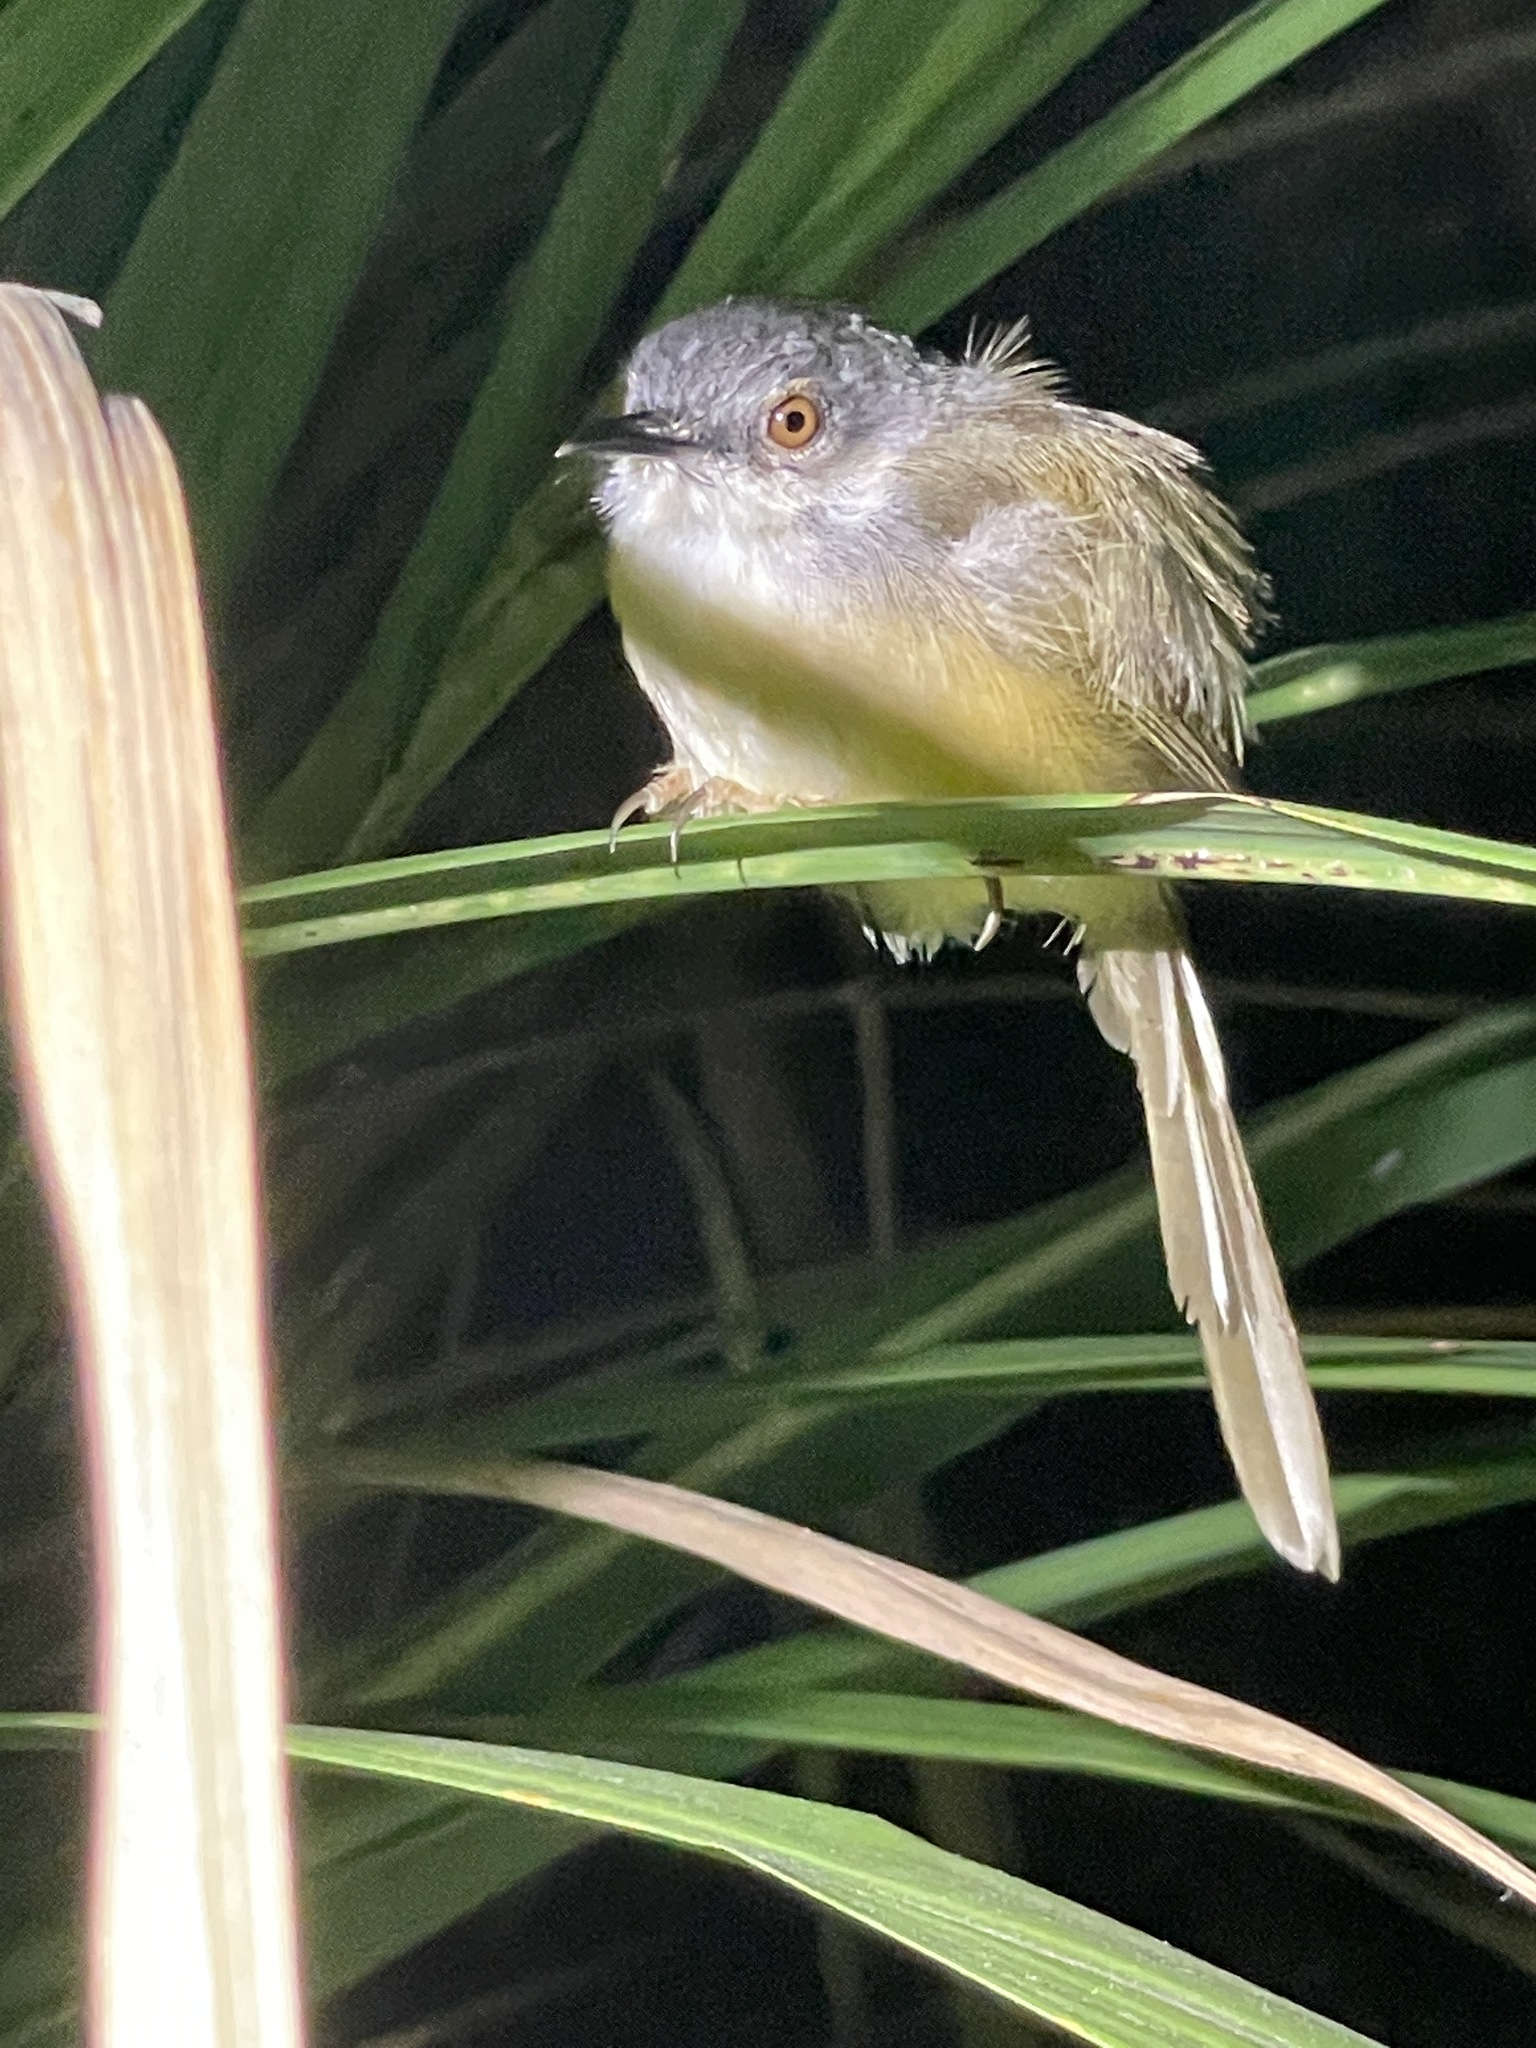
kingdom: Animalia
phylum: Chordata
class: Aves
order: Passeriformes
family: Cisticolidae
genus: Prinia
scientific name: Prinia flaviventris
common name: Yellow-bellied prinia
